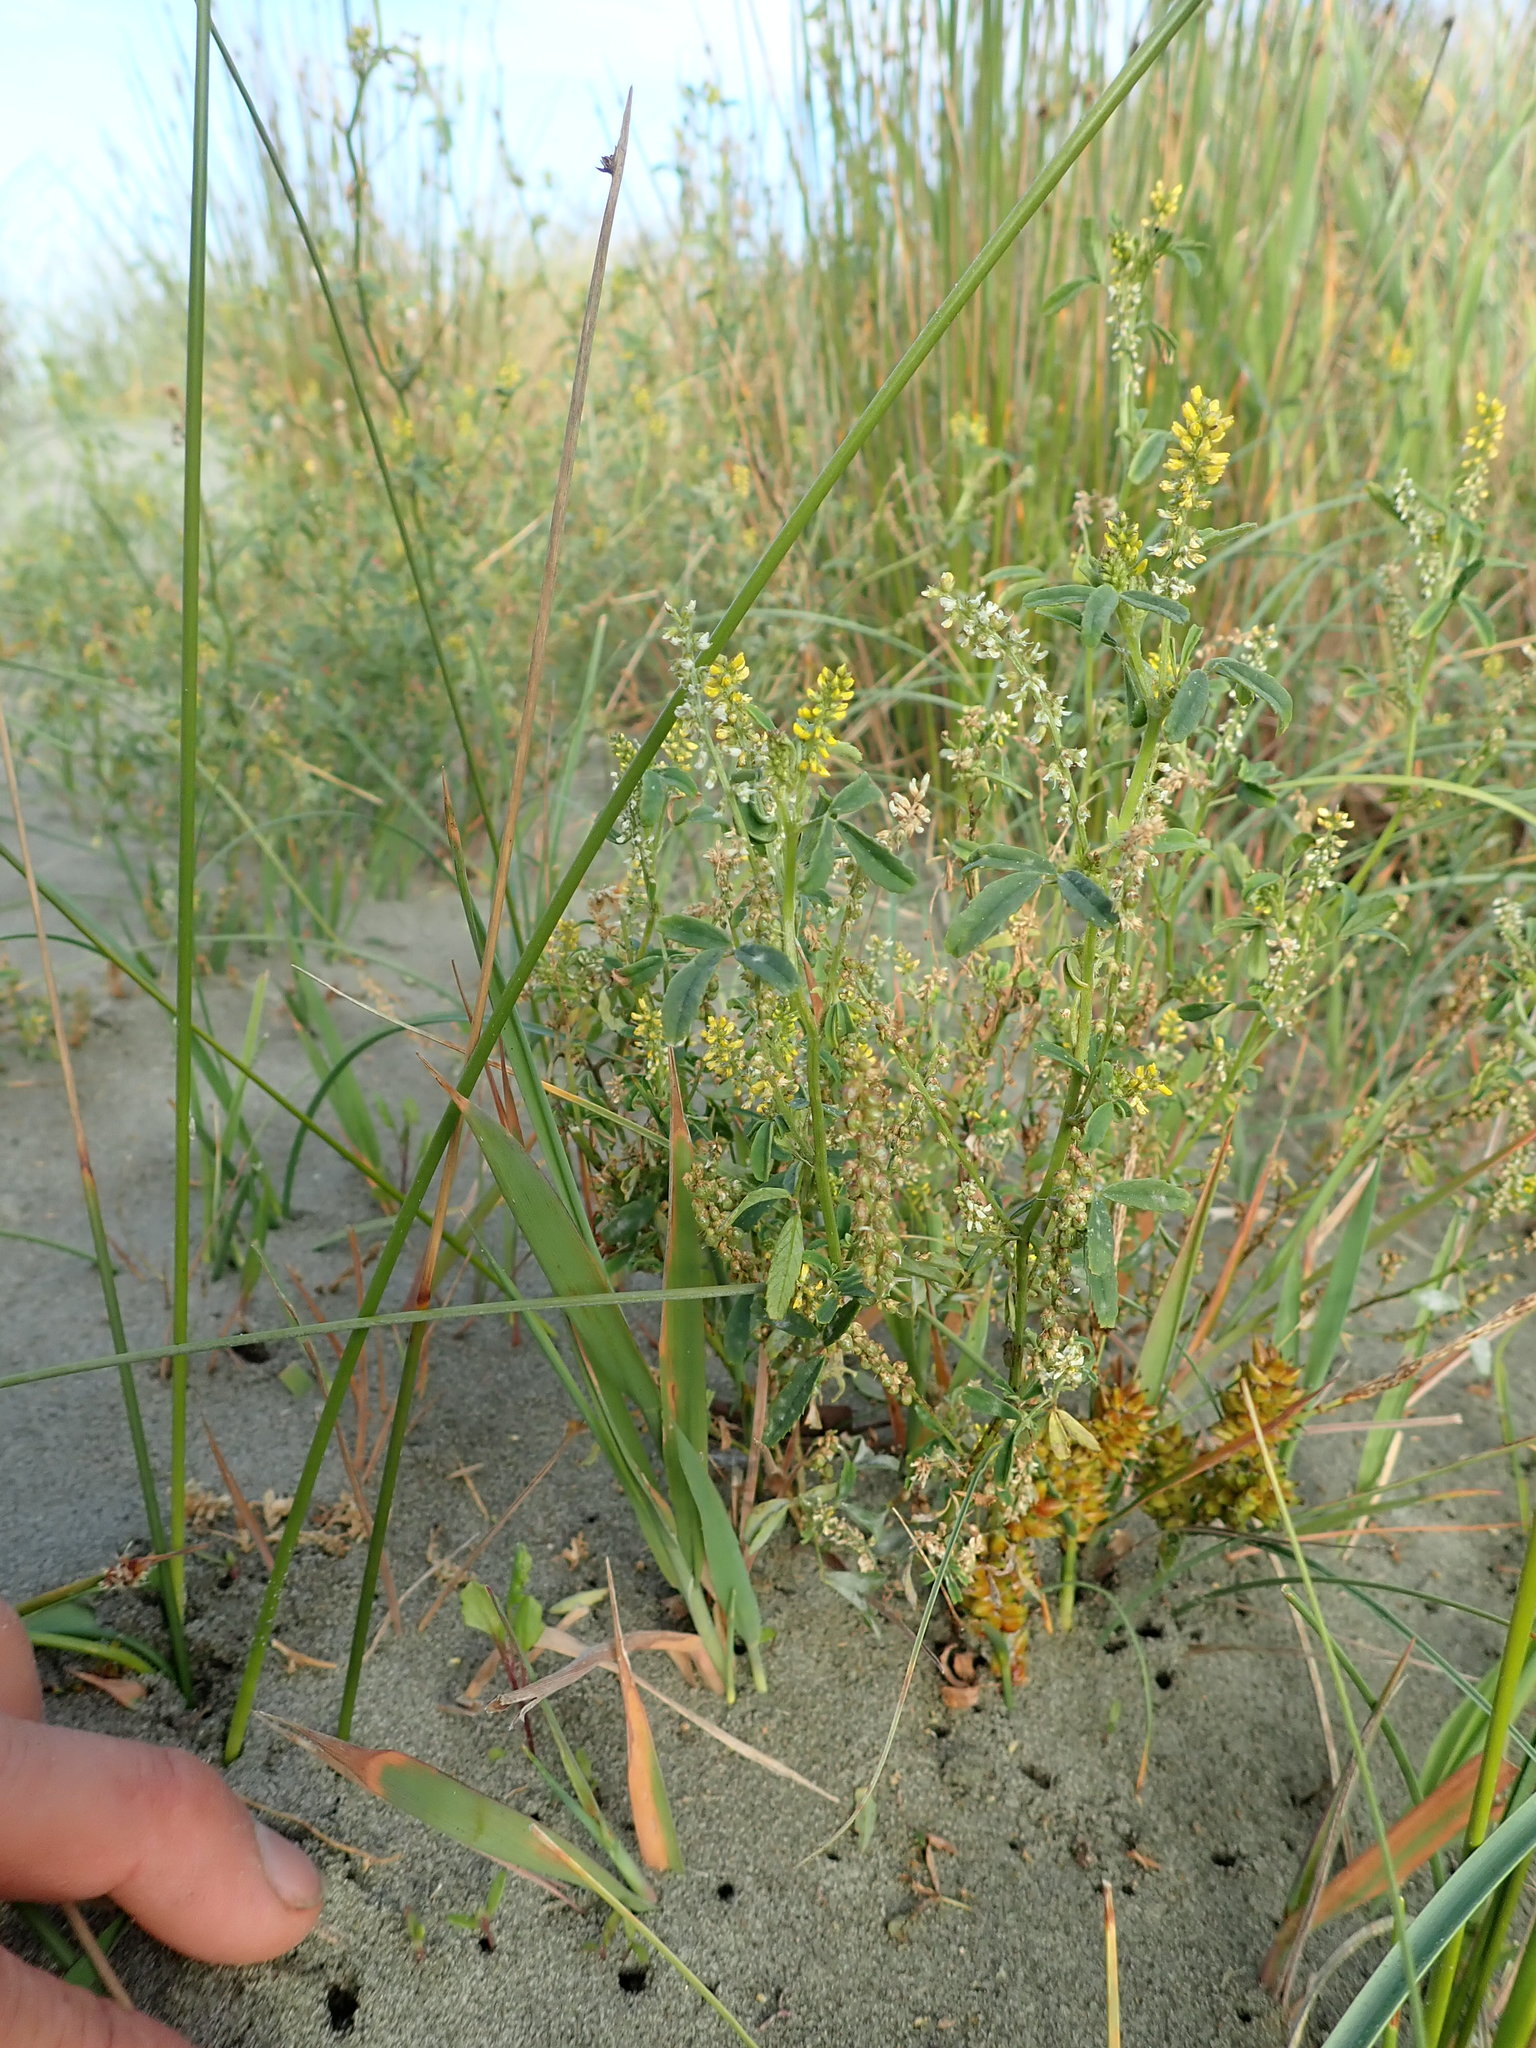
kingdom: Plantae
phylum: Tracheophyta
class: Magnoliopsida
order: Fabales
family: Fabaceae
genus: Melilotus
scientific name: Melilotus indicus
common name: Small melilot
